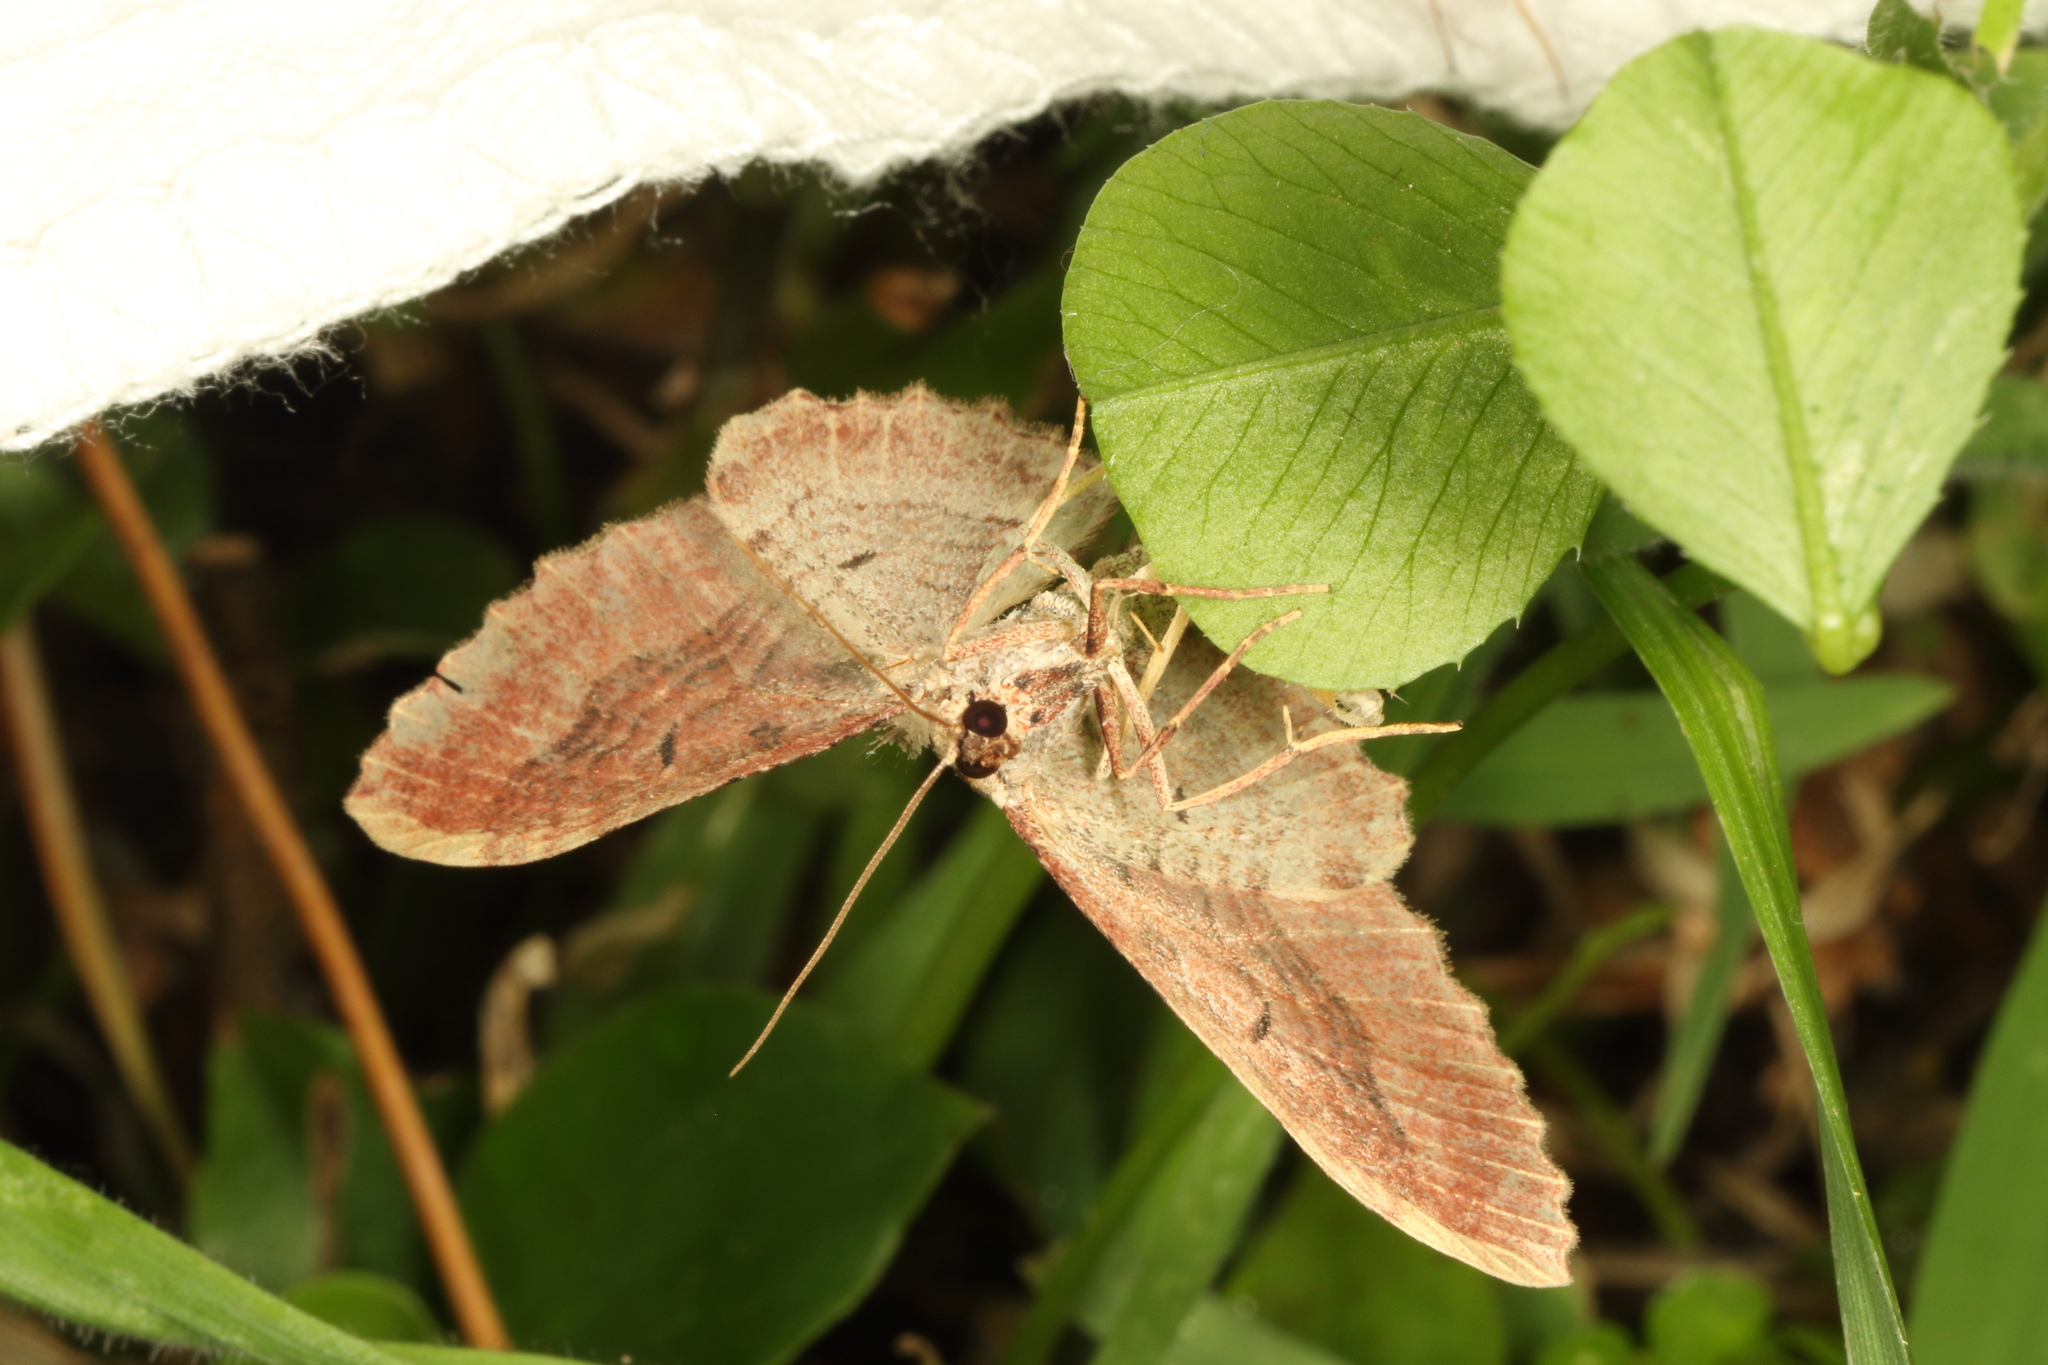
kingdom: Animalia
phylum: Arthropoda
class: Insecta
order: Lepidoptera
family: Geometridae
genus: Austrocidaria
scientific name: Austrocidaria bipartita
